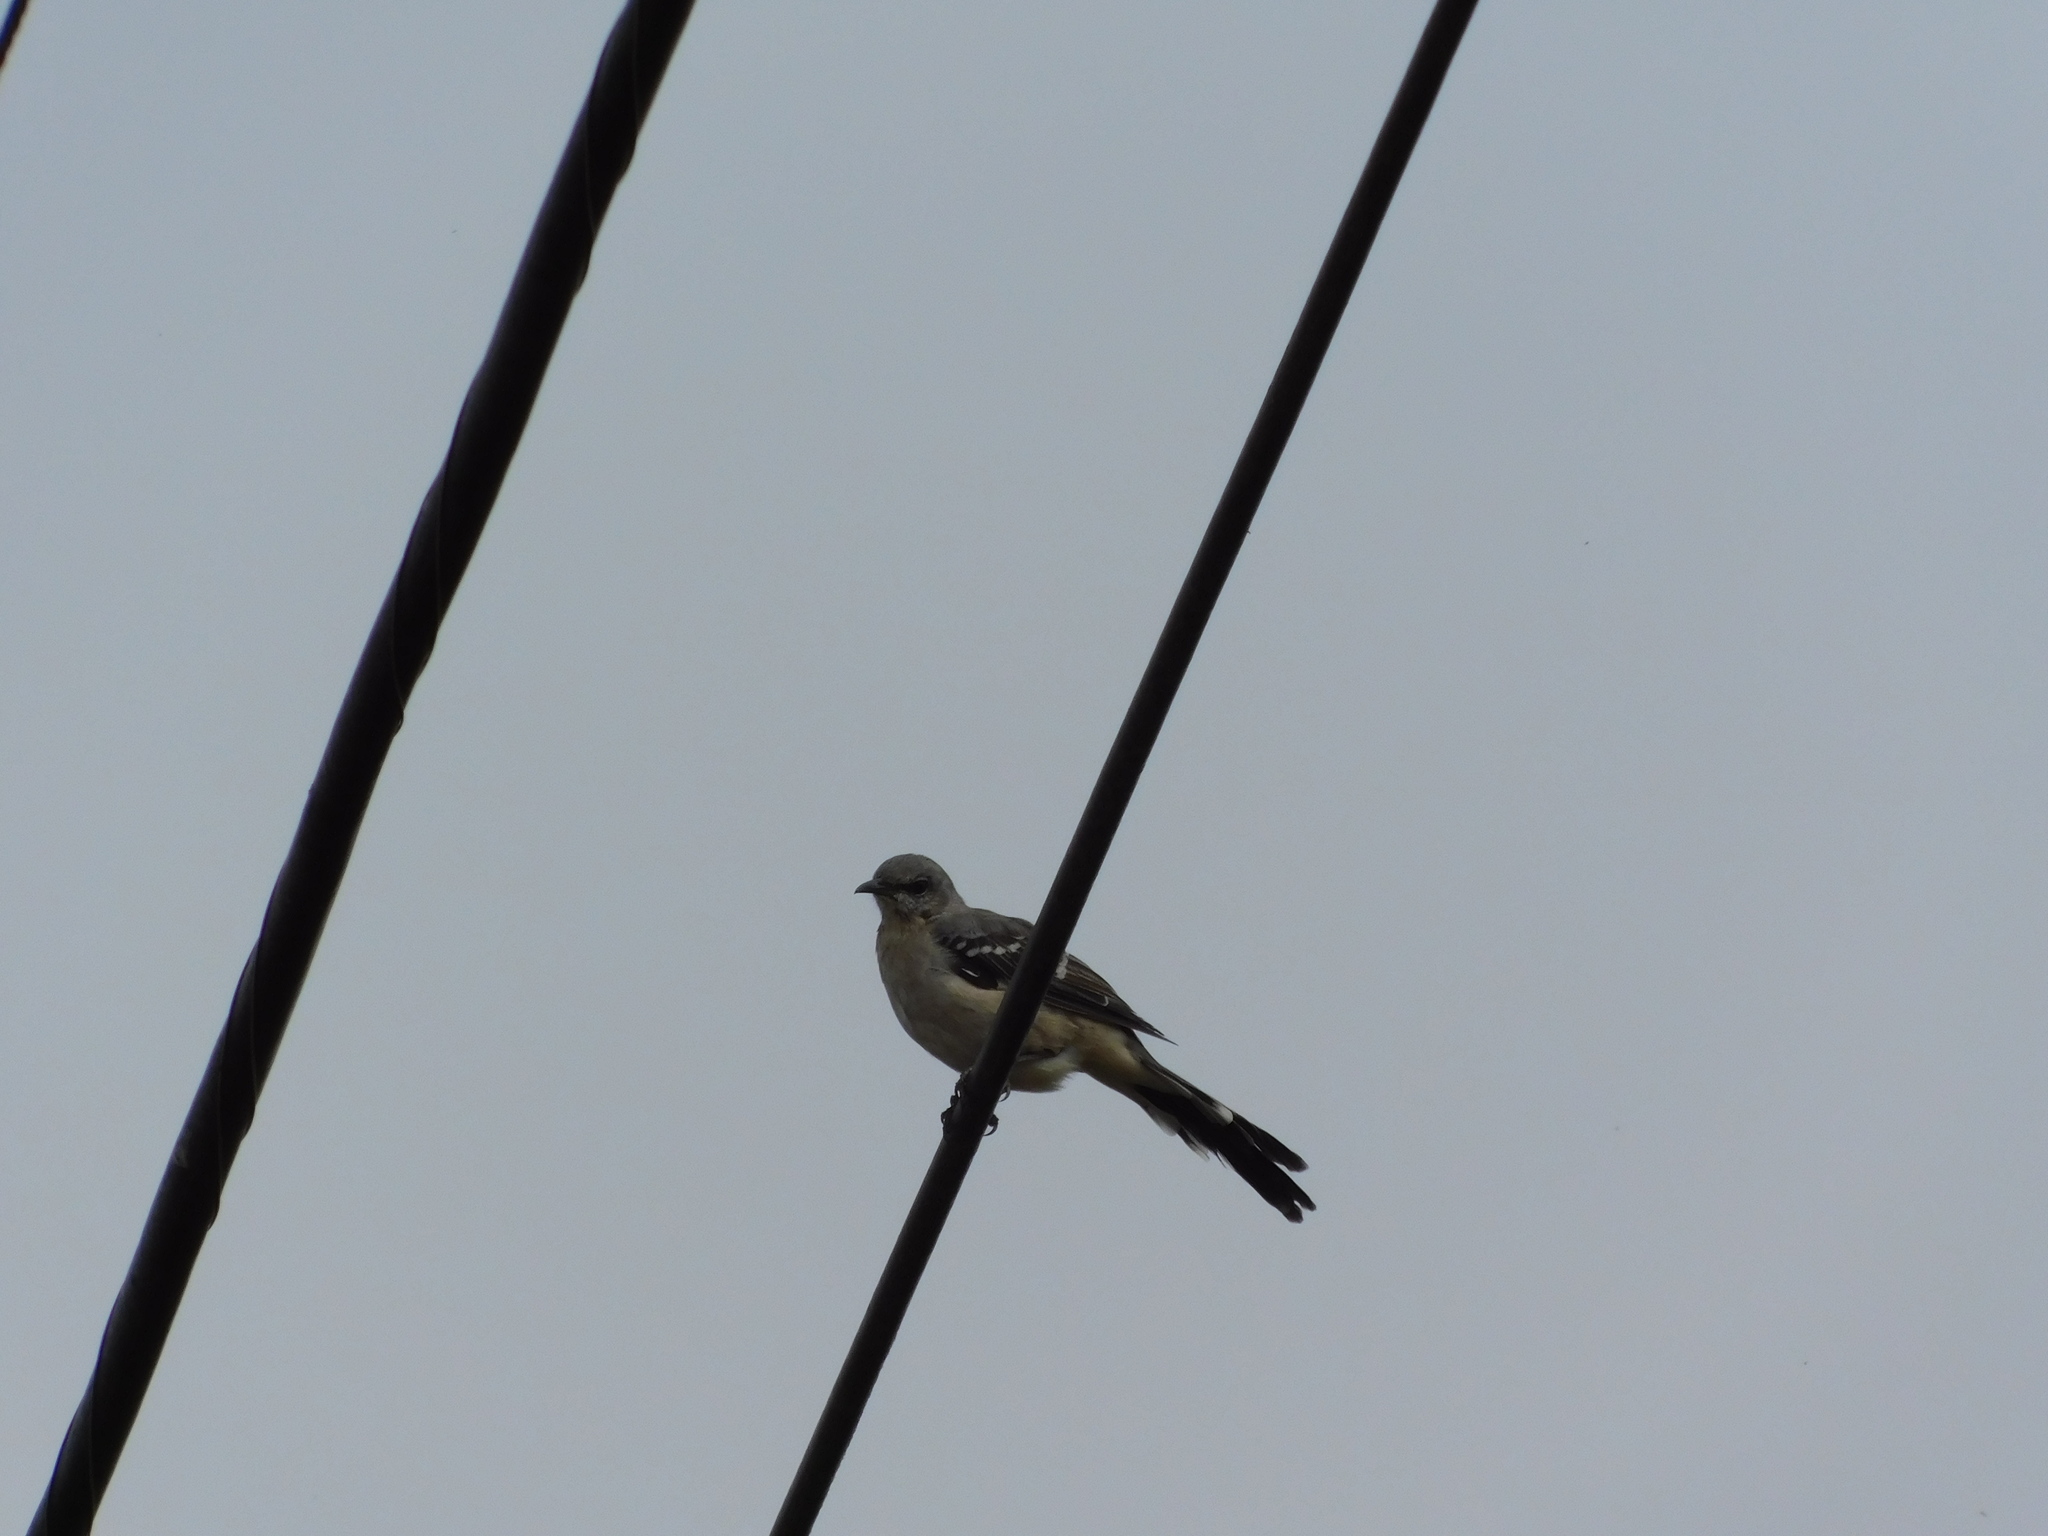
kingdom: Animalia
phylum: Chordata
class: Aves
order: Passeriformes
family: Mimidae
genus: Mimus
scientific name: Mimus polyglottos
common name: Northern mockingbird
